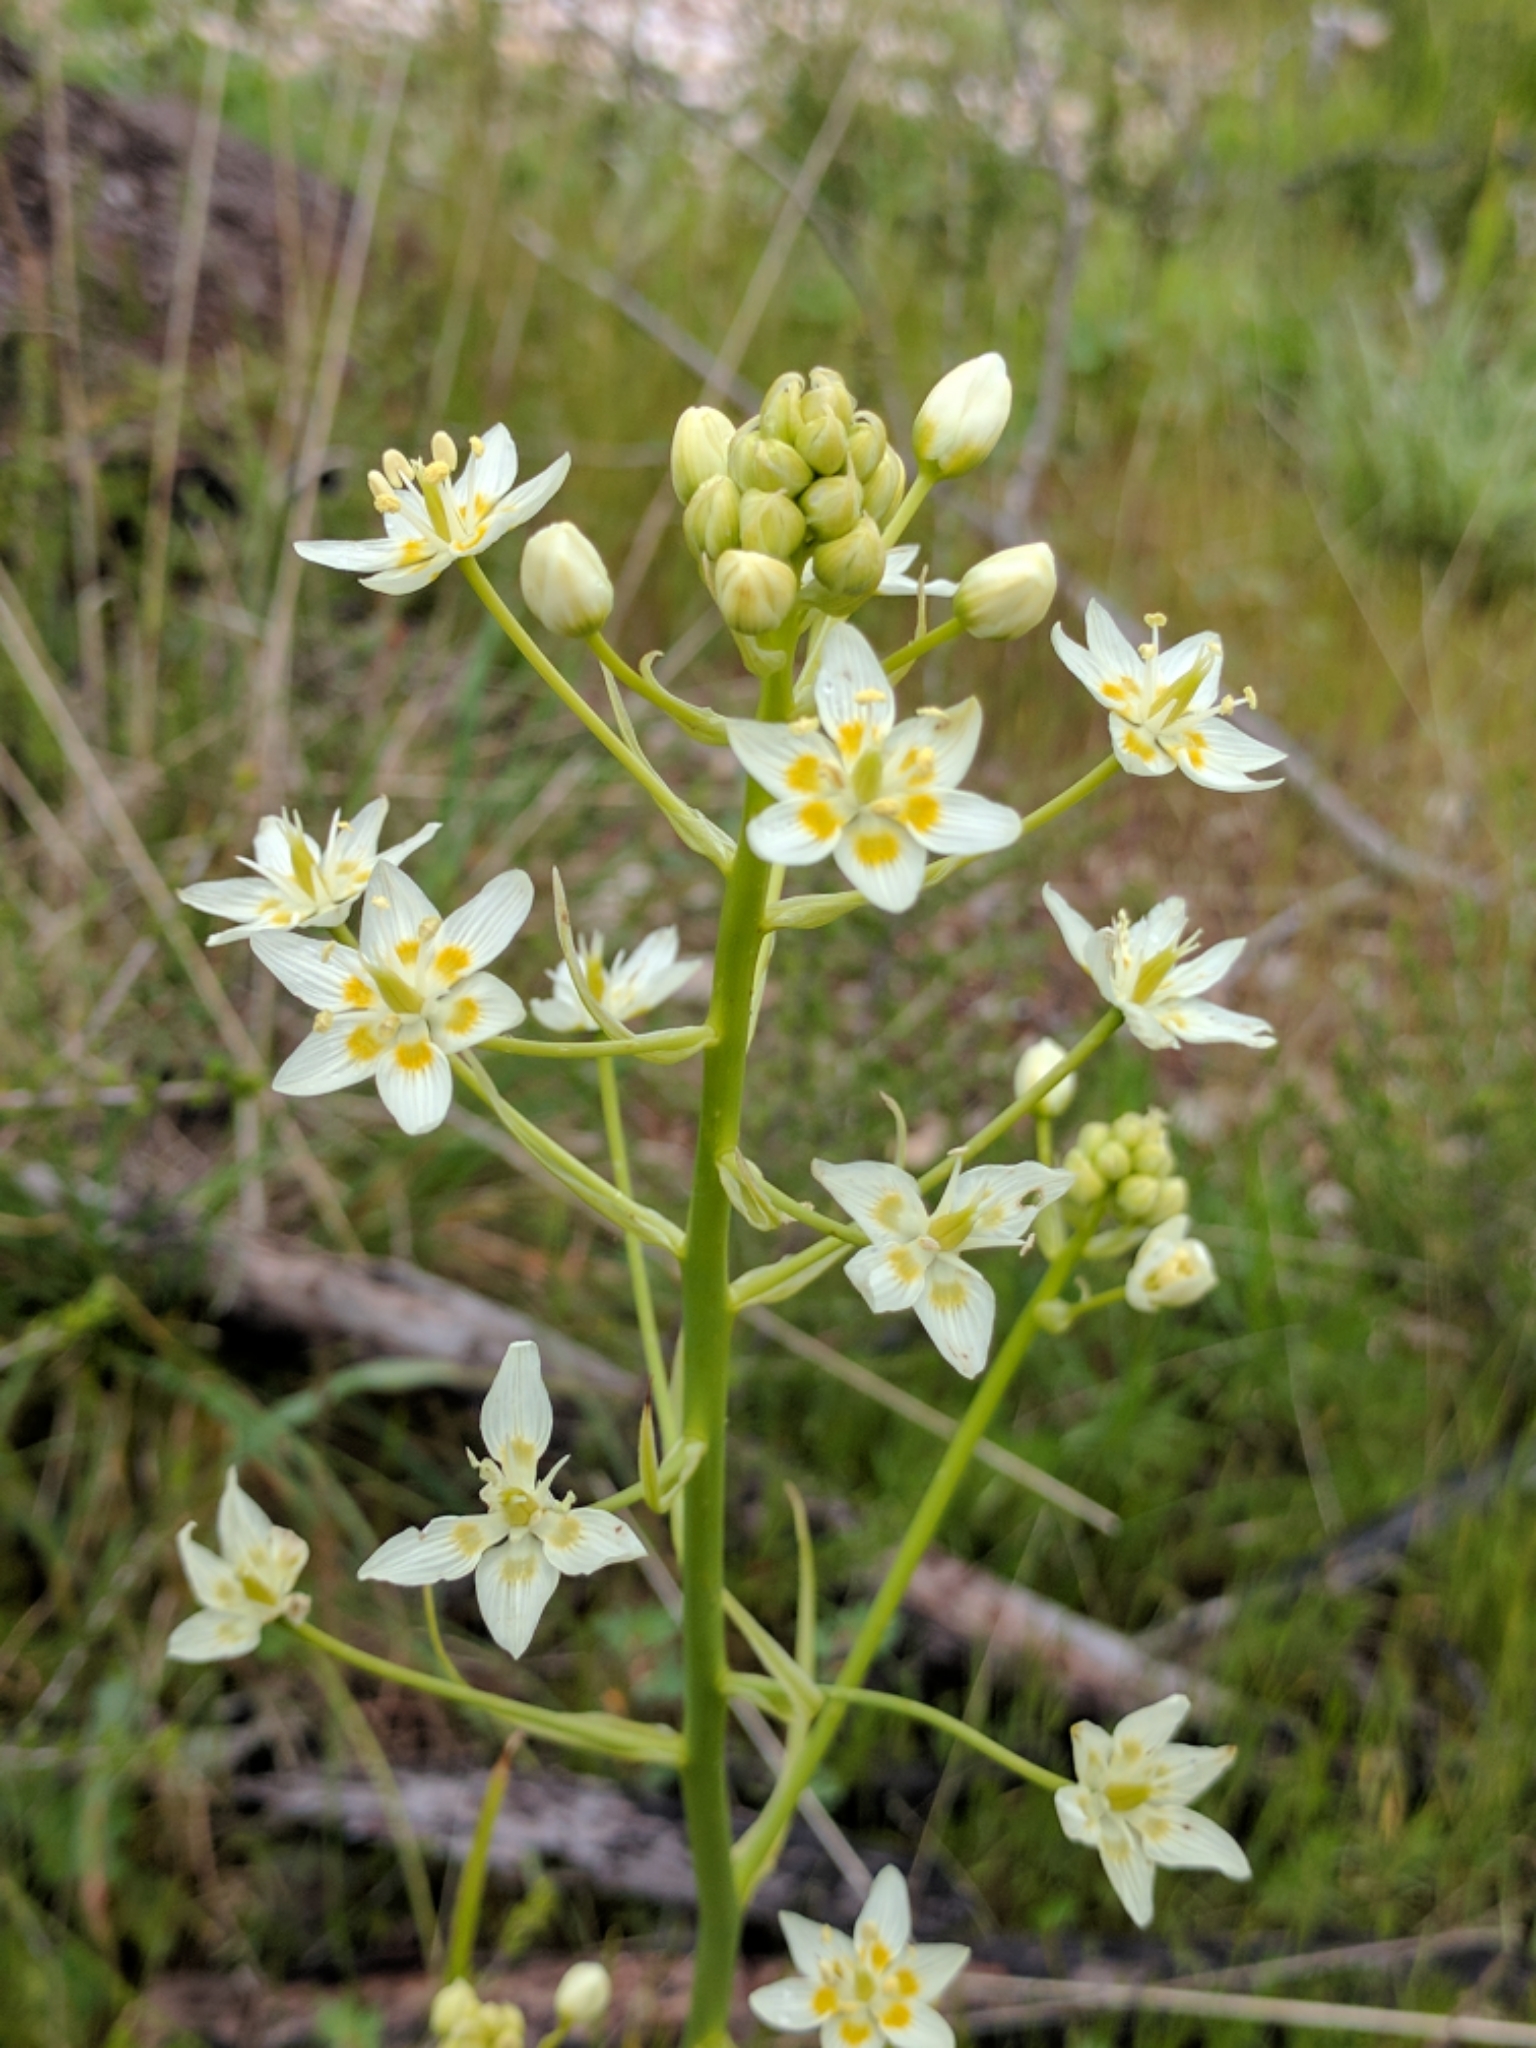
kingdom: Plantae
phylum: Tracheophyta
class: Liliopsida
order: Liliales
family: Melanthiaceae
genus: Toxicoscordion
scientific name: Toxicoscordion fremontii
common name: Fremont's death camas
